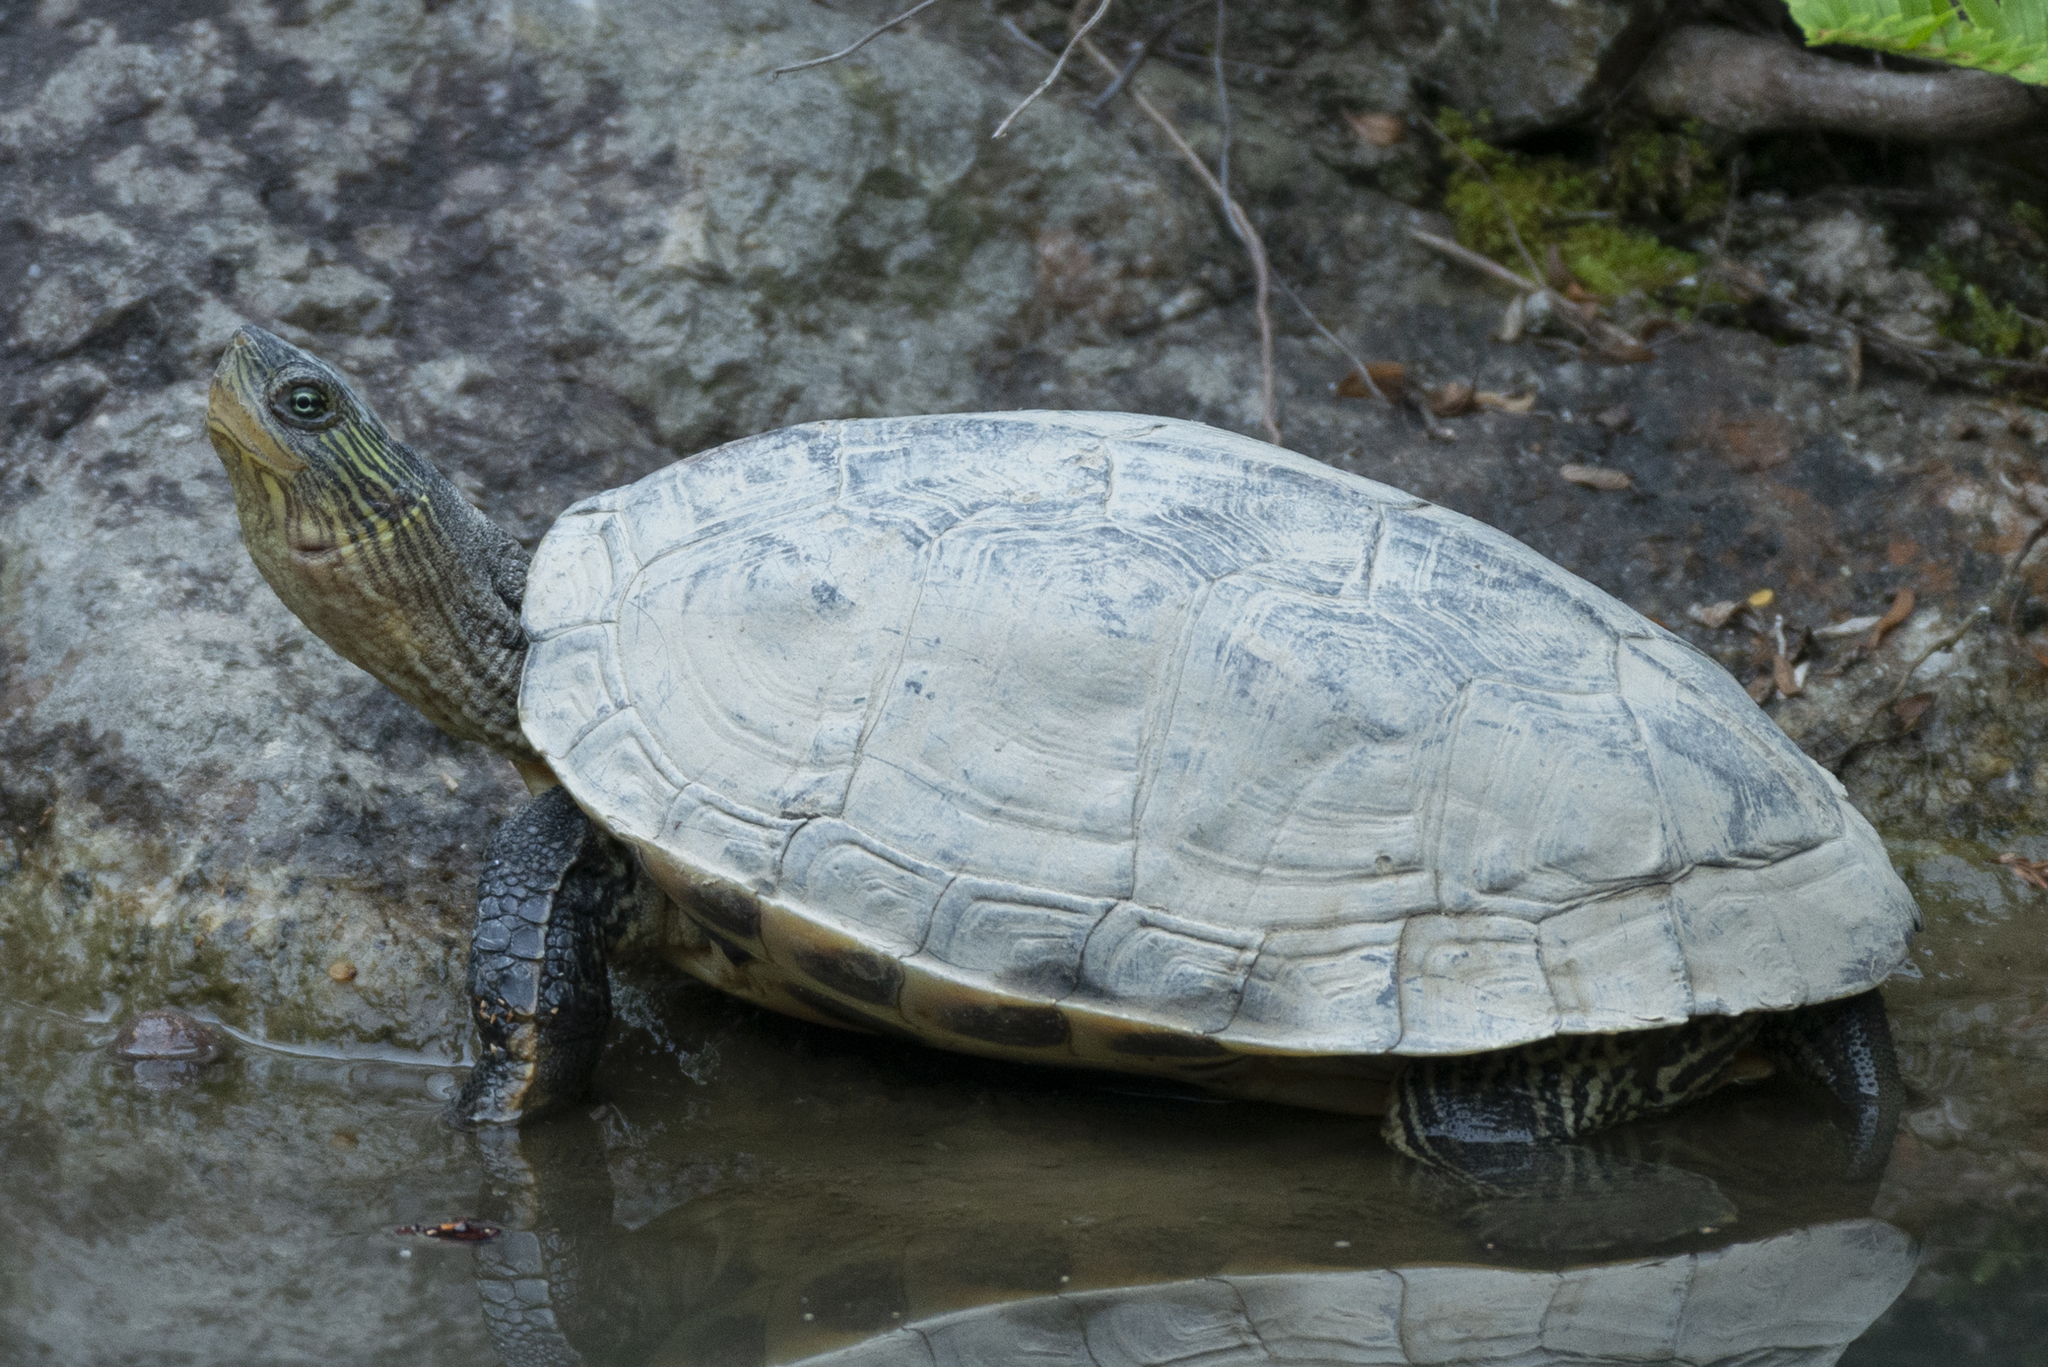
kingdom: Animalia
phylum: Chordata
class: Testudines
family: Geoemydidae
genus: Mauremys
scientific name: Mauremys sinensis
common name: Chinese stripe-necked turtle
